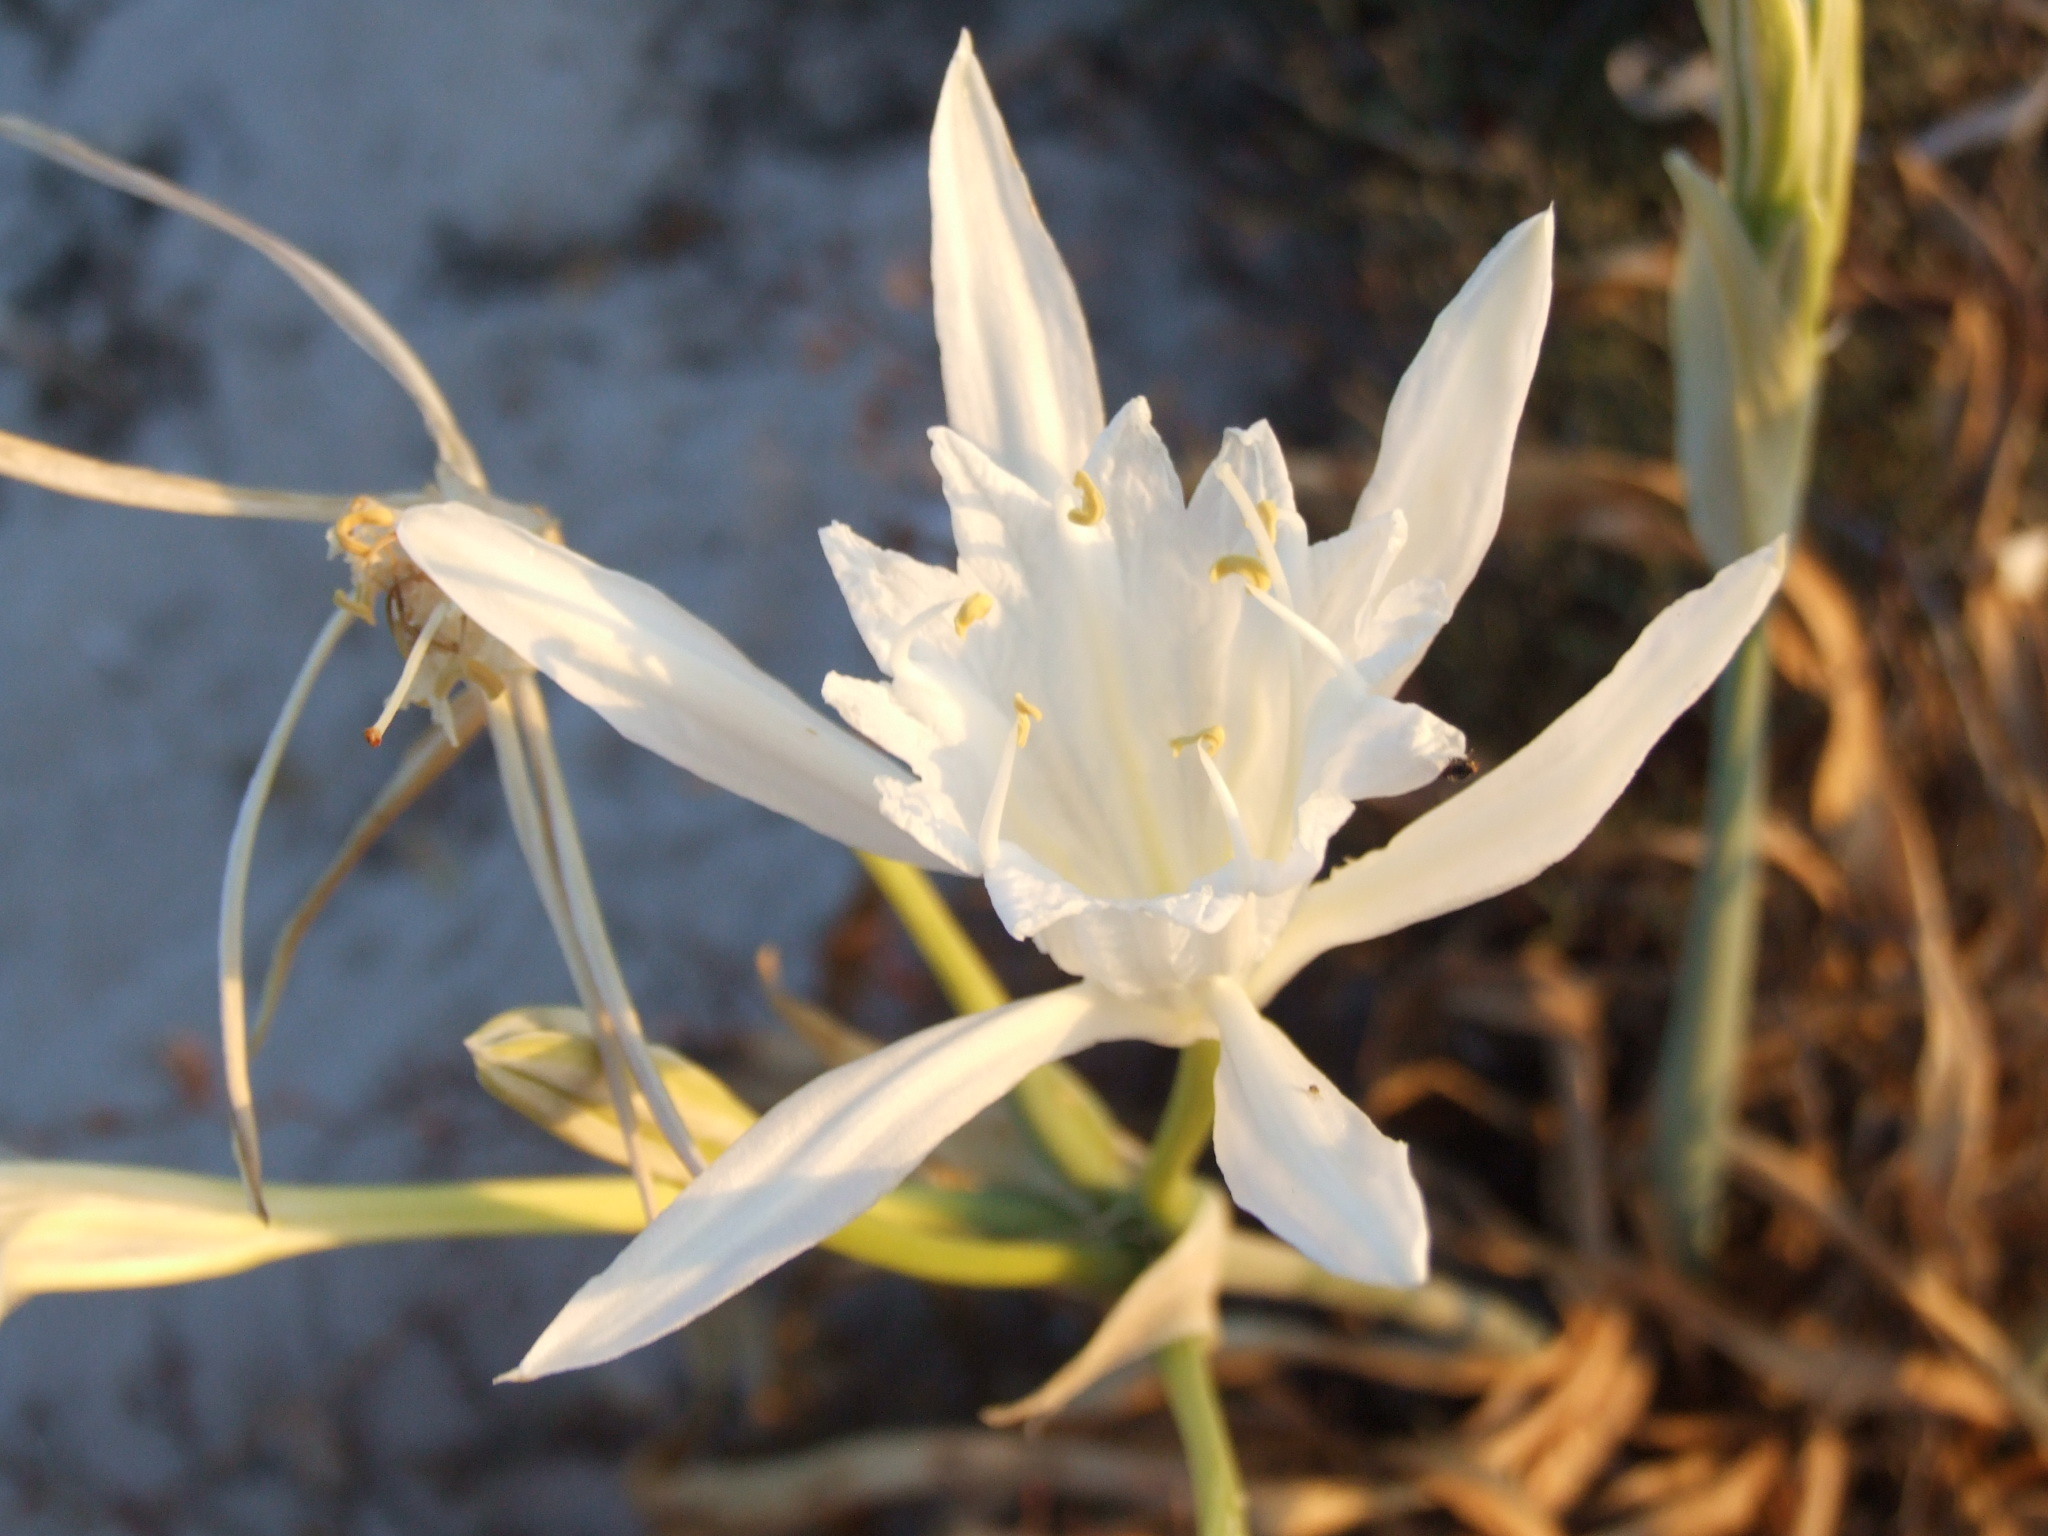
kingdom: Plantae
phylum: Tracheophyta
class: Liliopsida
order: Asparagales
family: Amaryllidaceae
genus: Pancratium
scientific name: Pancratium maritimum
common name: Sea-daffodil
